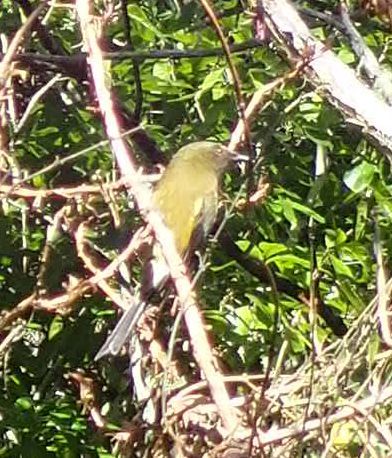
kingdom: Animalia
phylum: Chordata
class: Aves
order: Passeriformes
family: Meliphagidae
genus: Anthornis
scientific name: Anthornis melanura
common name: New zealand bellbird
